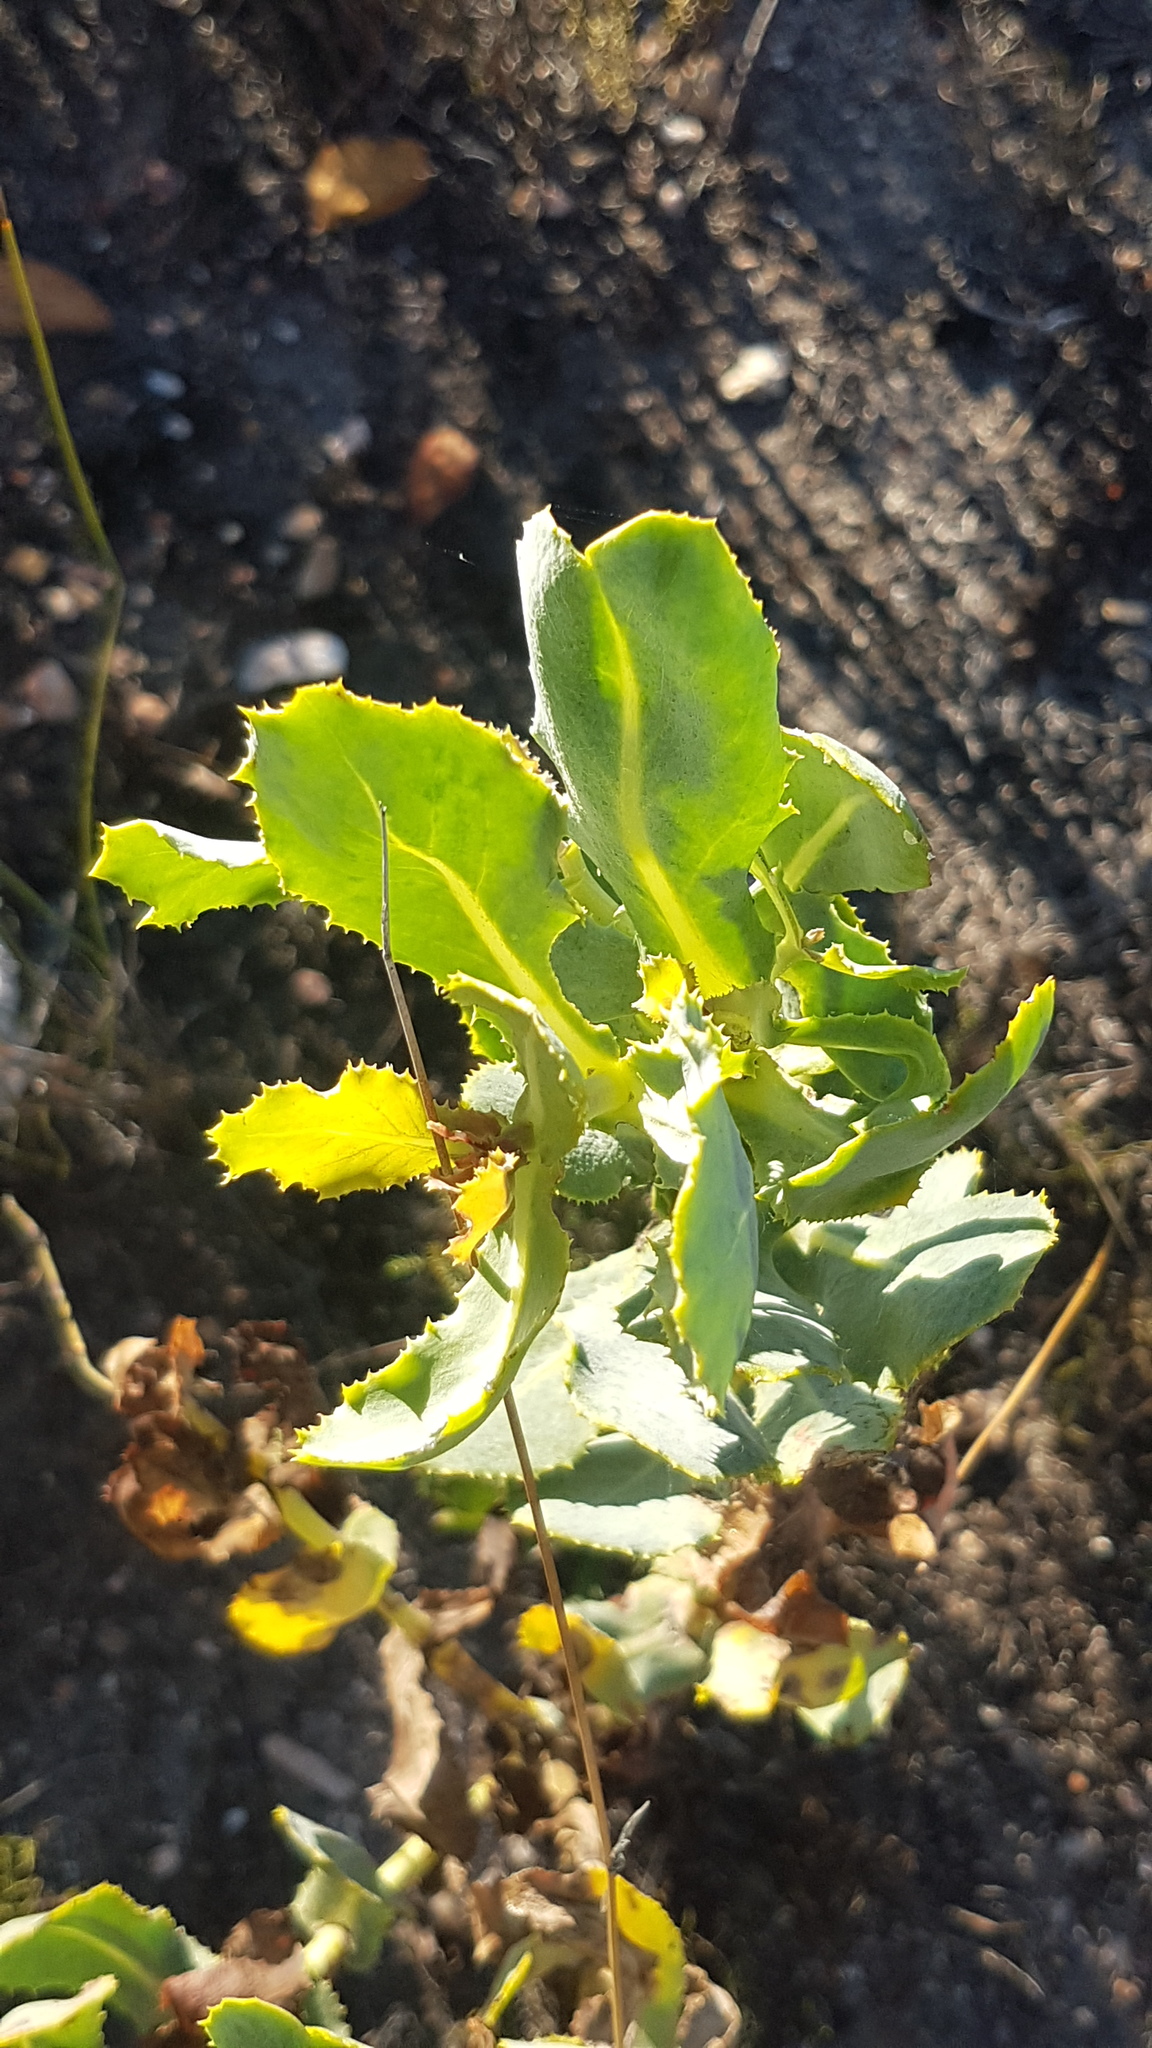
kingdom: Plantae
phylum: Tracheophyta
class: Magnoliopsida
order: Asterales
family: Asteraceae
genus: Othonna
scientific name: Othonna parviflora
